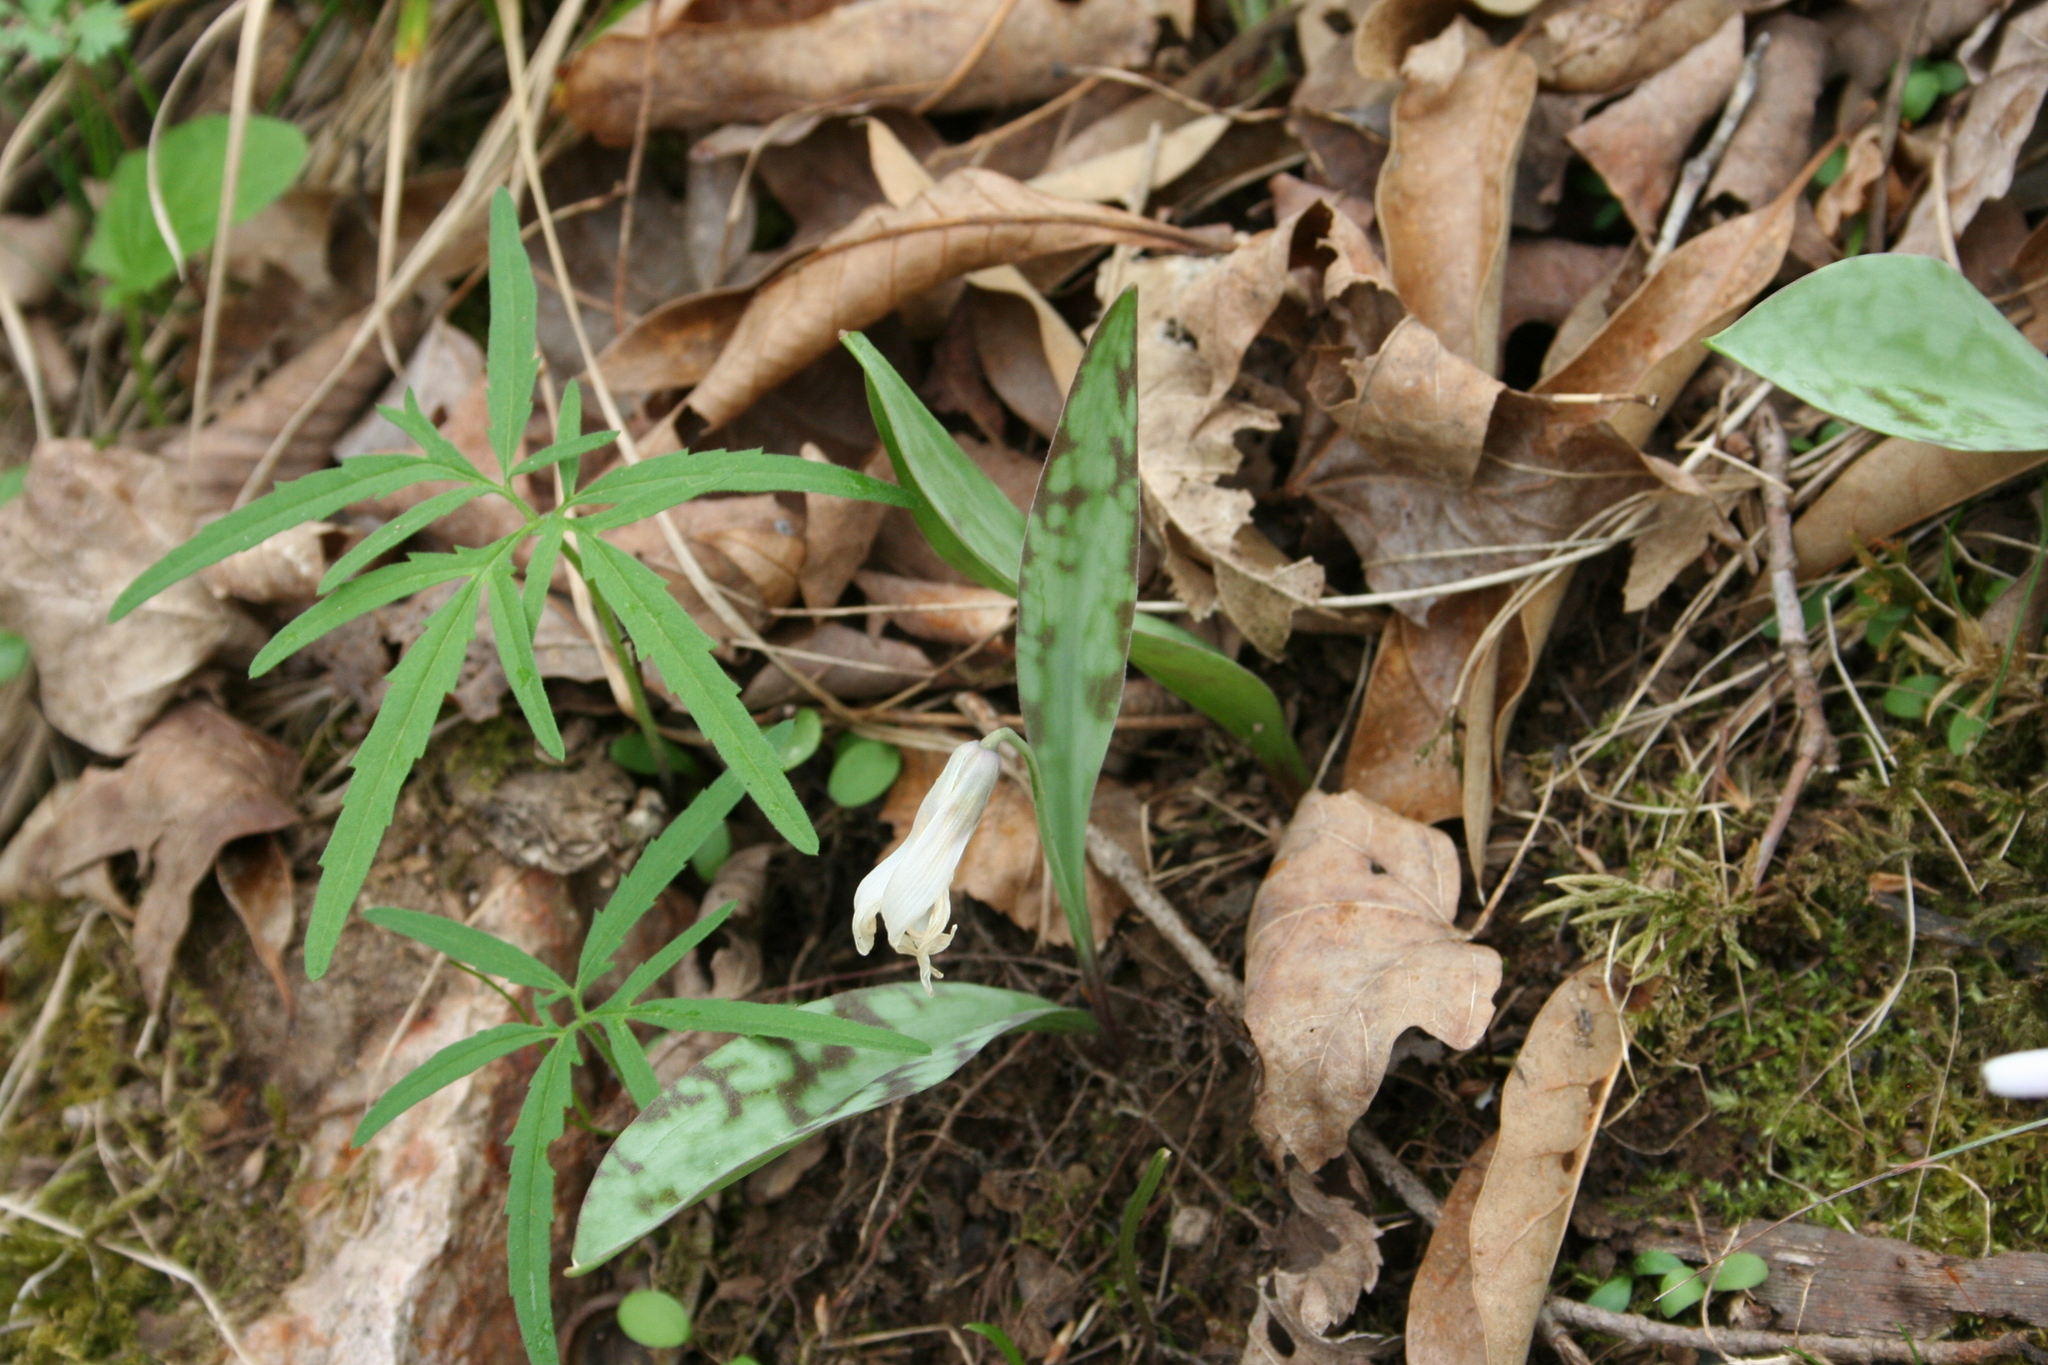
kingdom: Plantae
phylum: Tracheophyta
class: Liliopsida
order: Liliales
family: Liliaceae
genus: Erythronium
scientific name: Erythronium albidum
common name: White trout-lily
